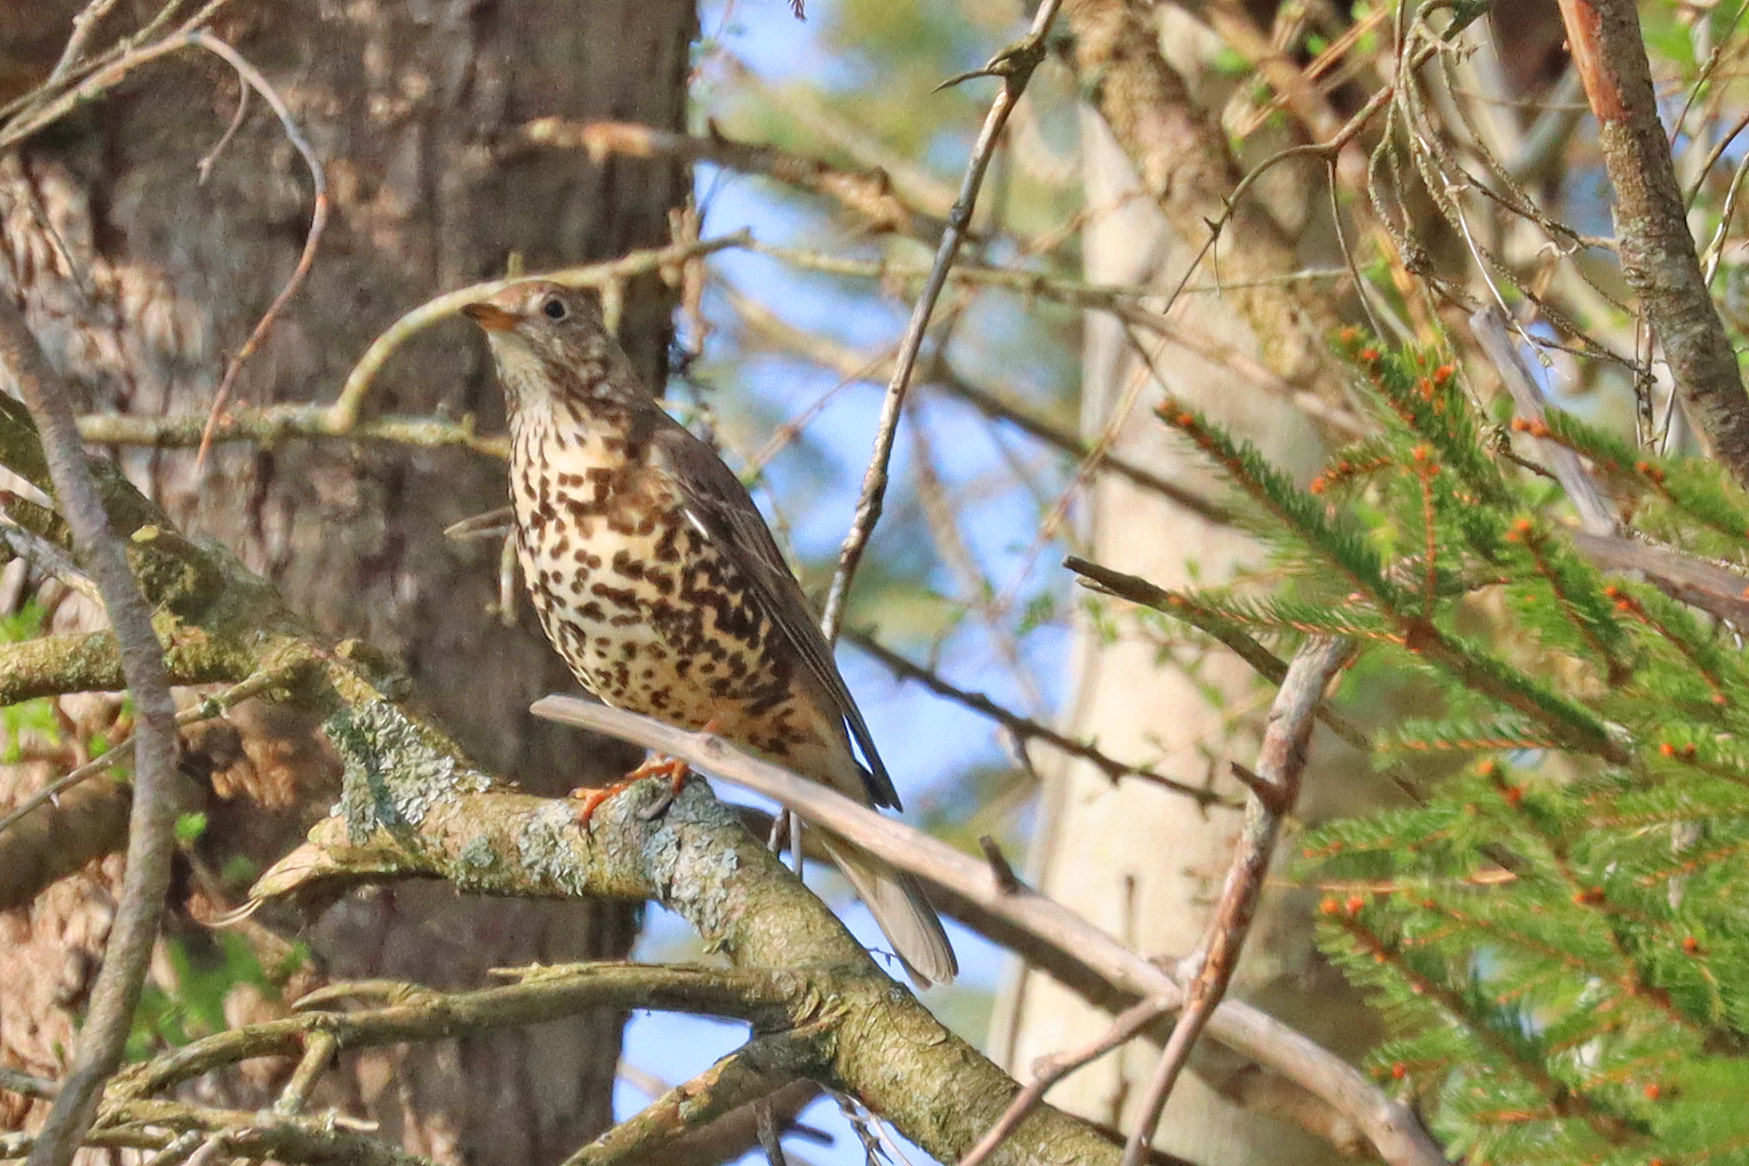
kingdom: Animalia
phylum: Chordata
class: Aves
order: Passeriformes
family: Turdidae
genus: Turdus
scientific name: Turdus viscivorus
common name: Mistle thrush
